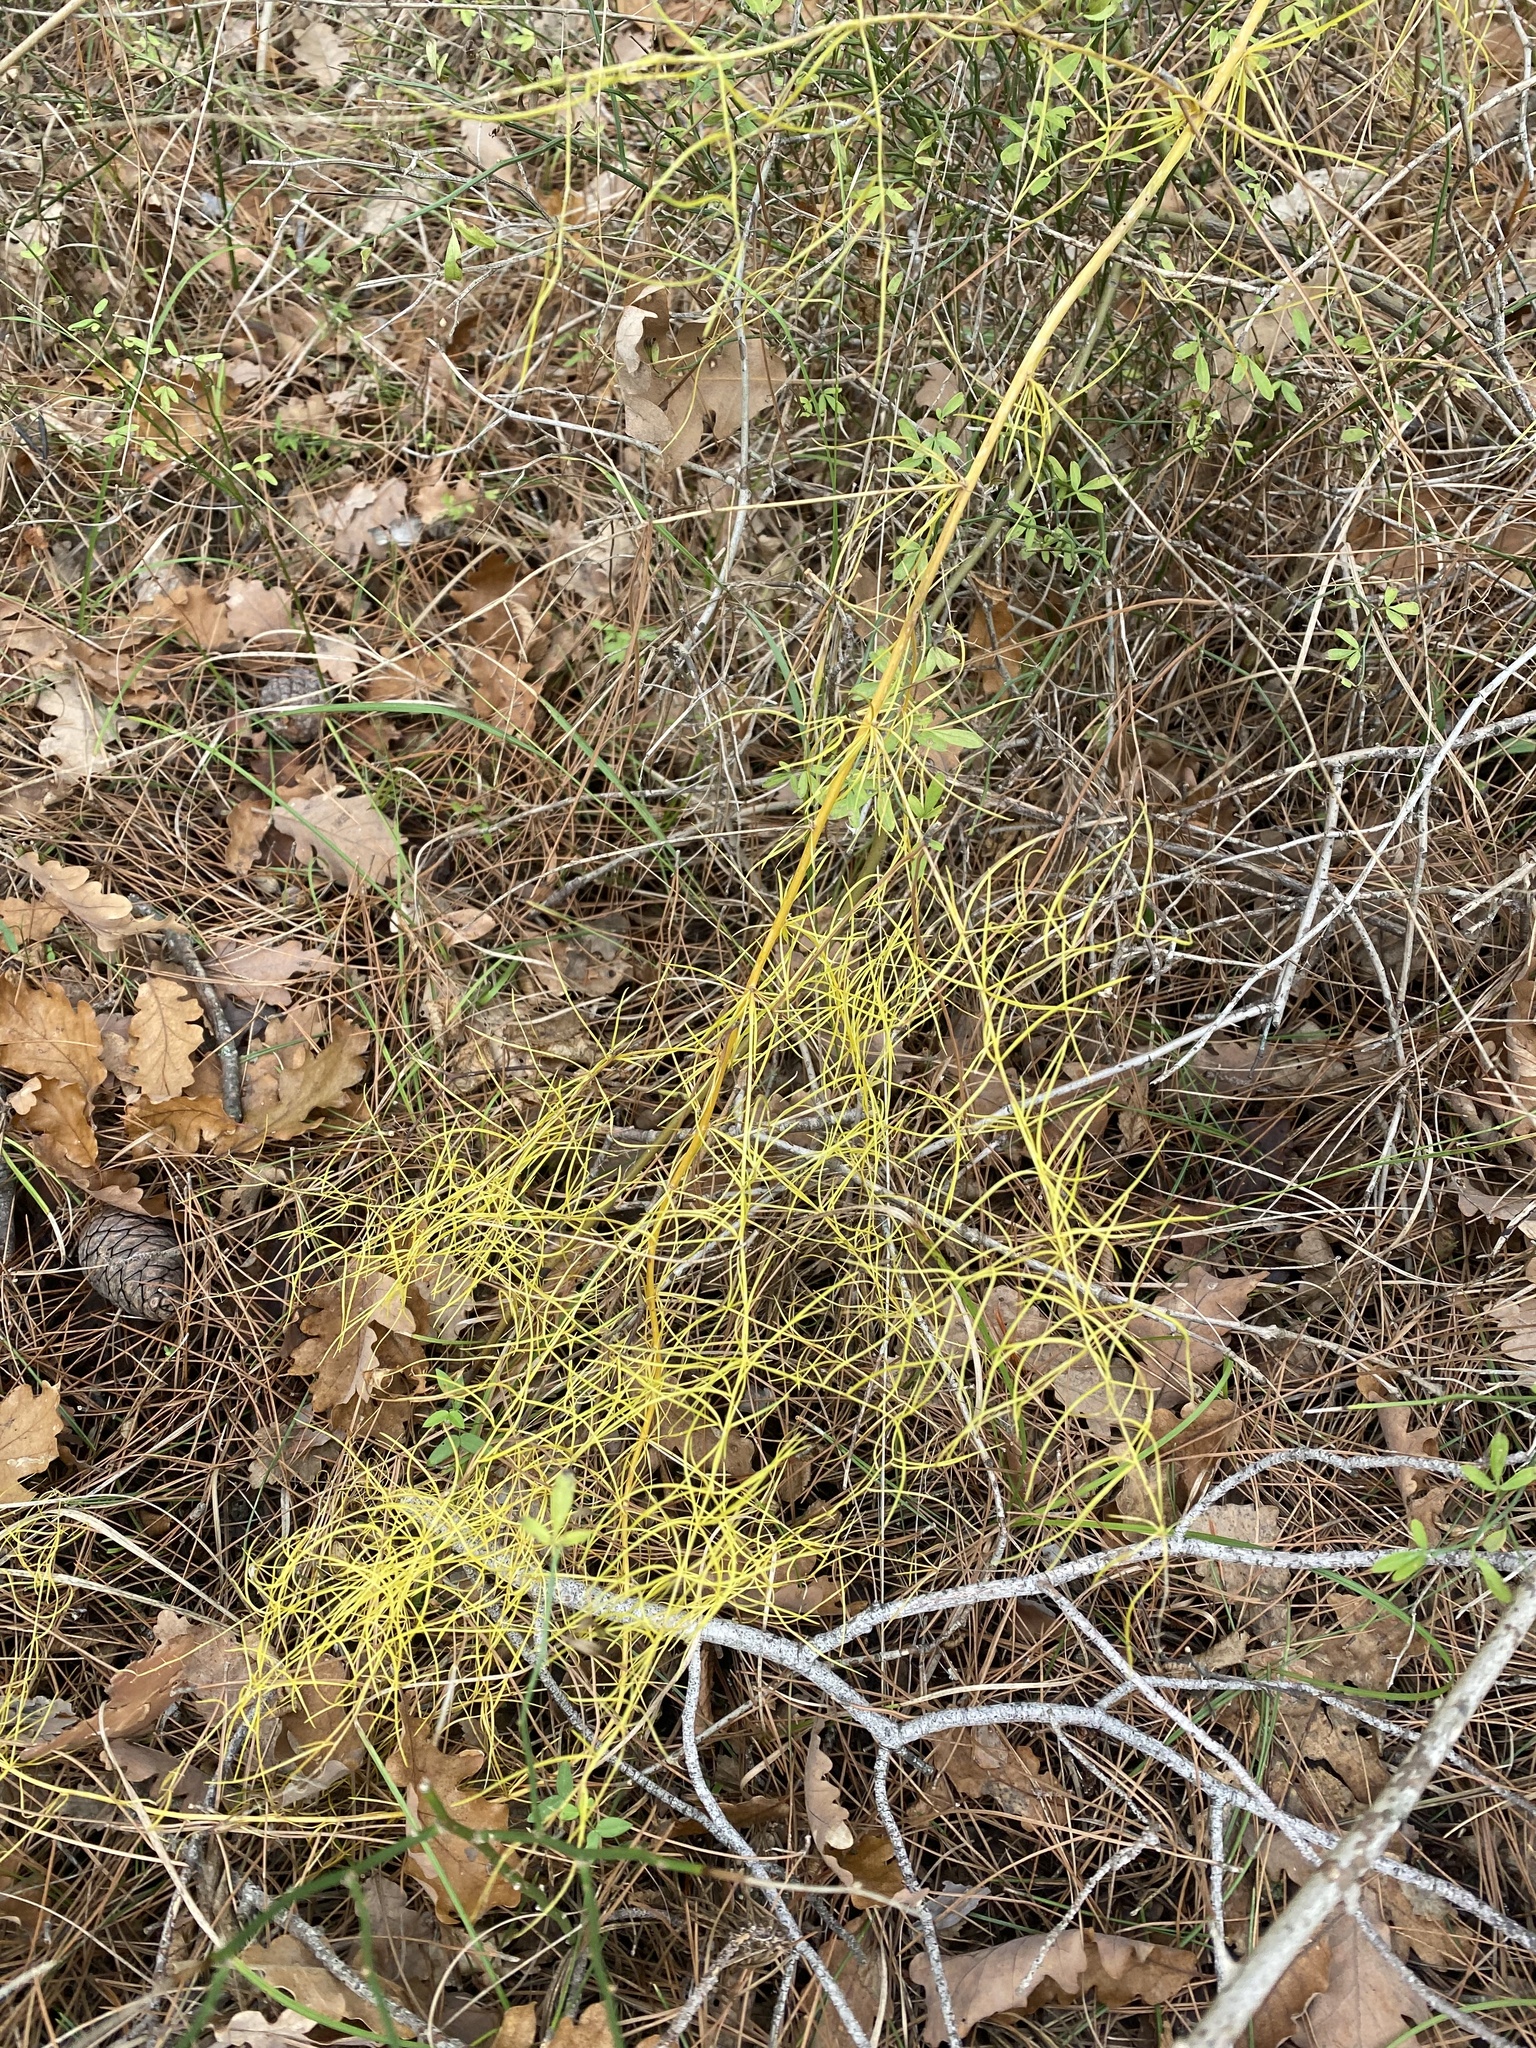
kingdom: Plantae
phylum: Tracheophyta
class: Liliopsida
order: Asparagales
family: Asparagaceae
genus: Asparagus
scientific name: Asparagus verticillatus
